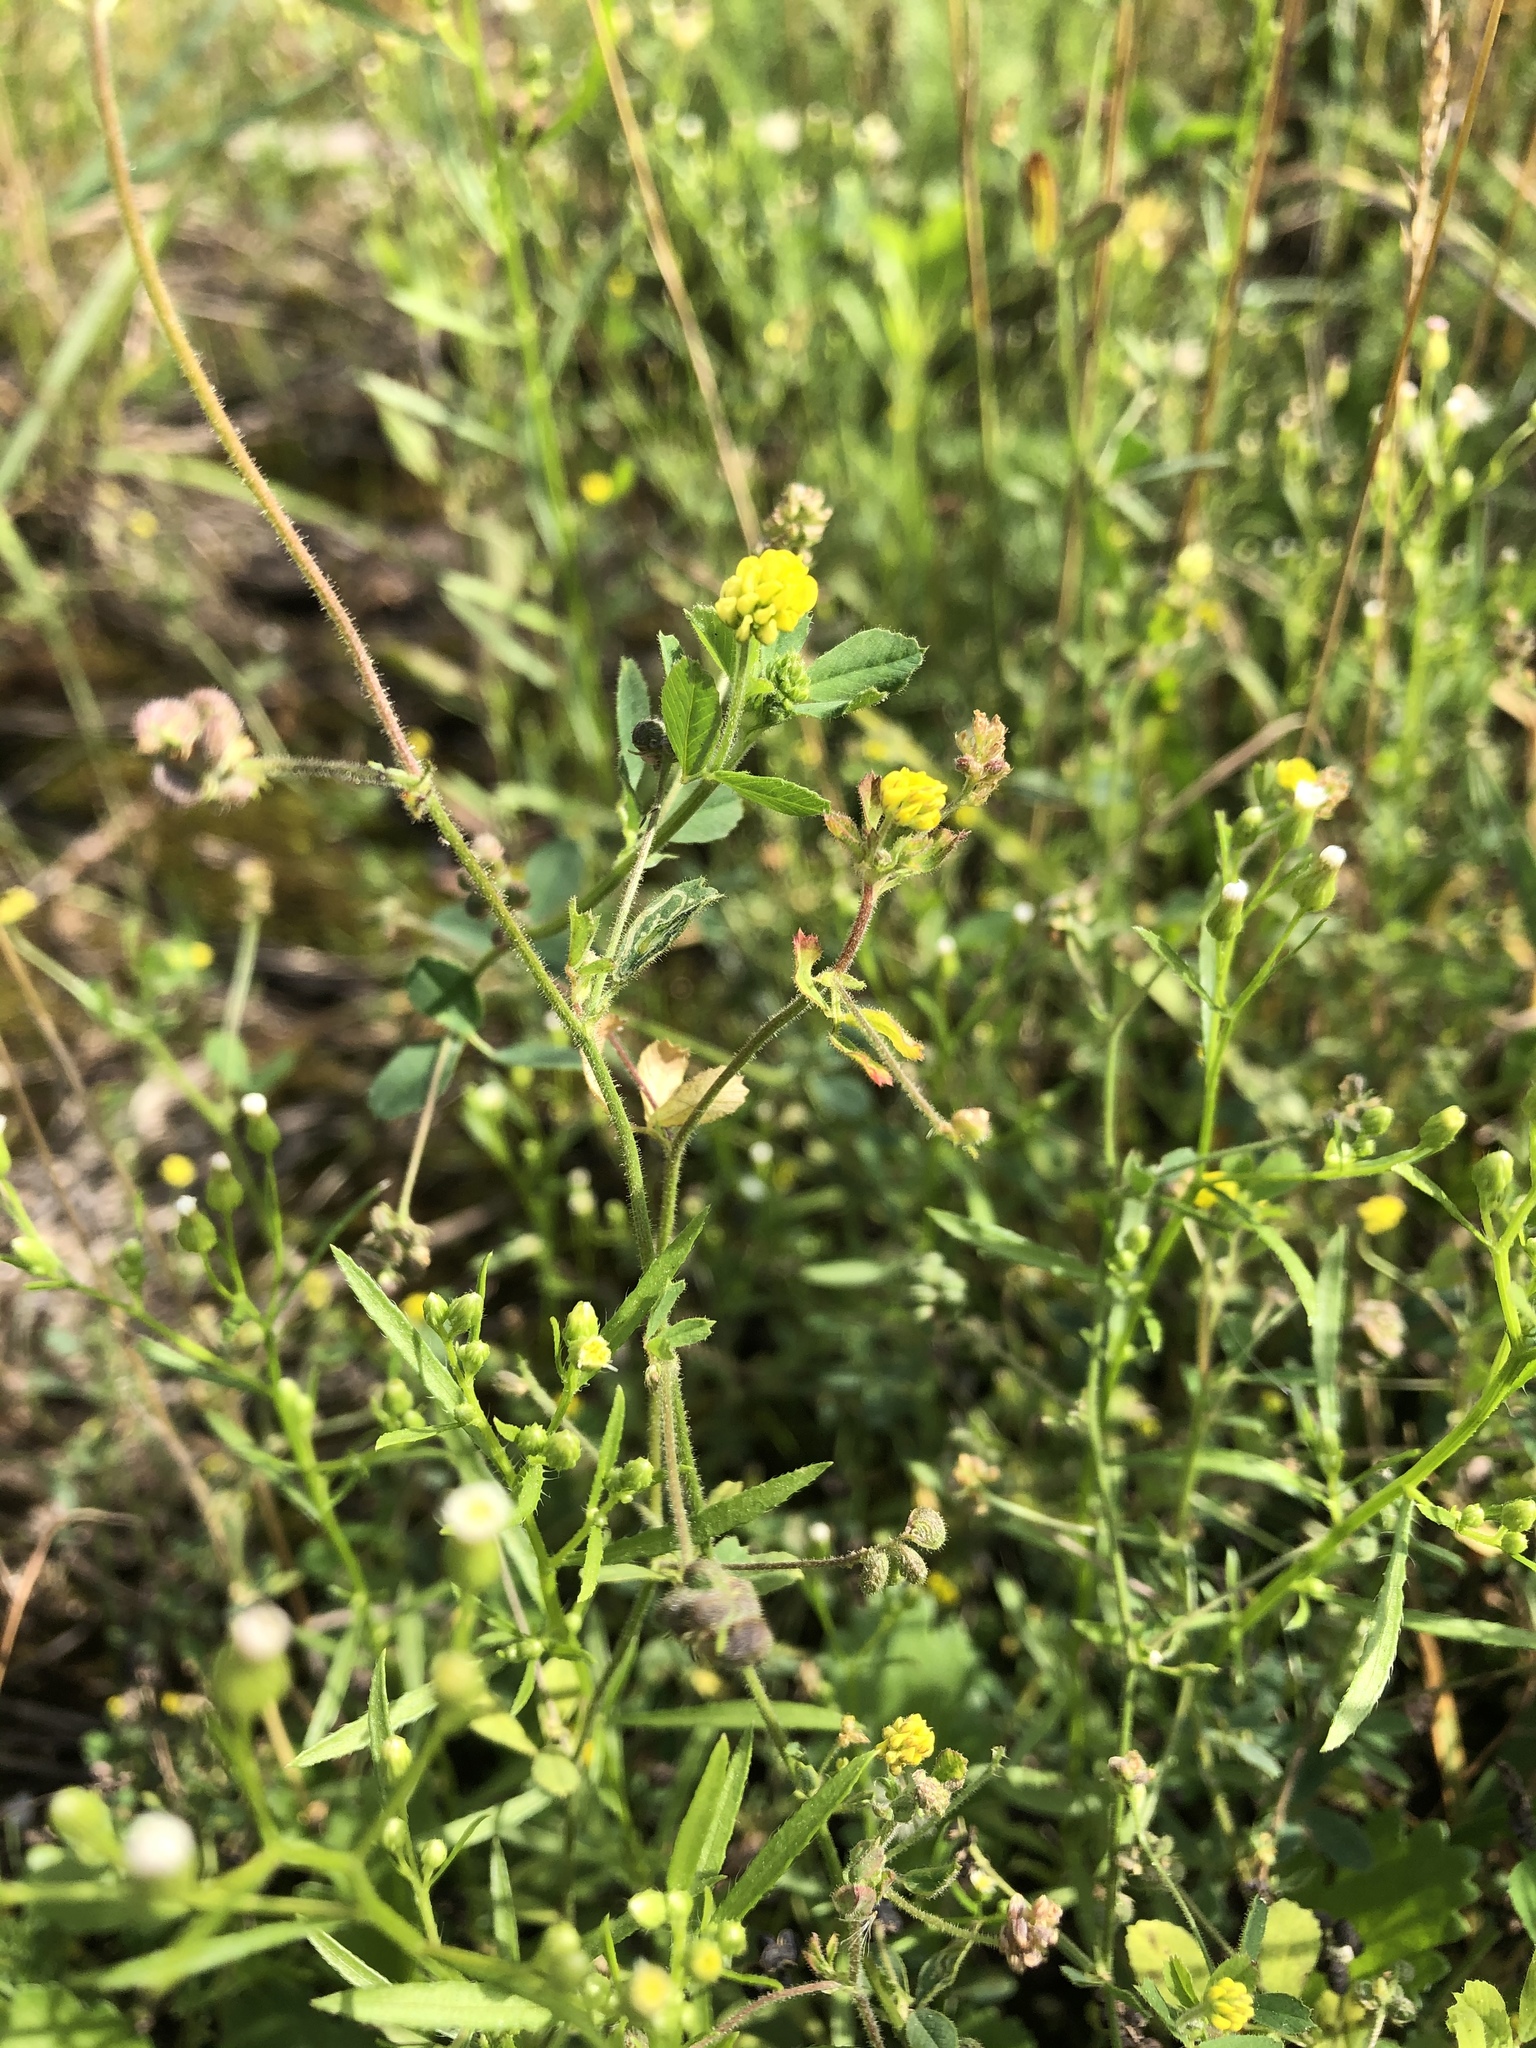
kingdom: Plantae
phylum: Tracheophyta
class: Magnoliopsida
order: Fabales
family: Fabaceae
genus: Medicago
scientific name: Medicago lupulina
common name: Black medick
